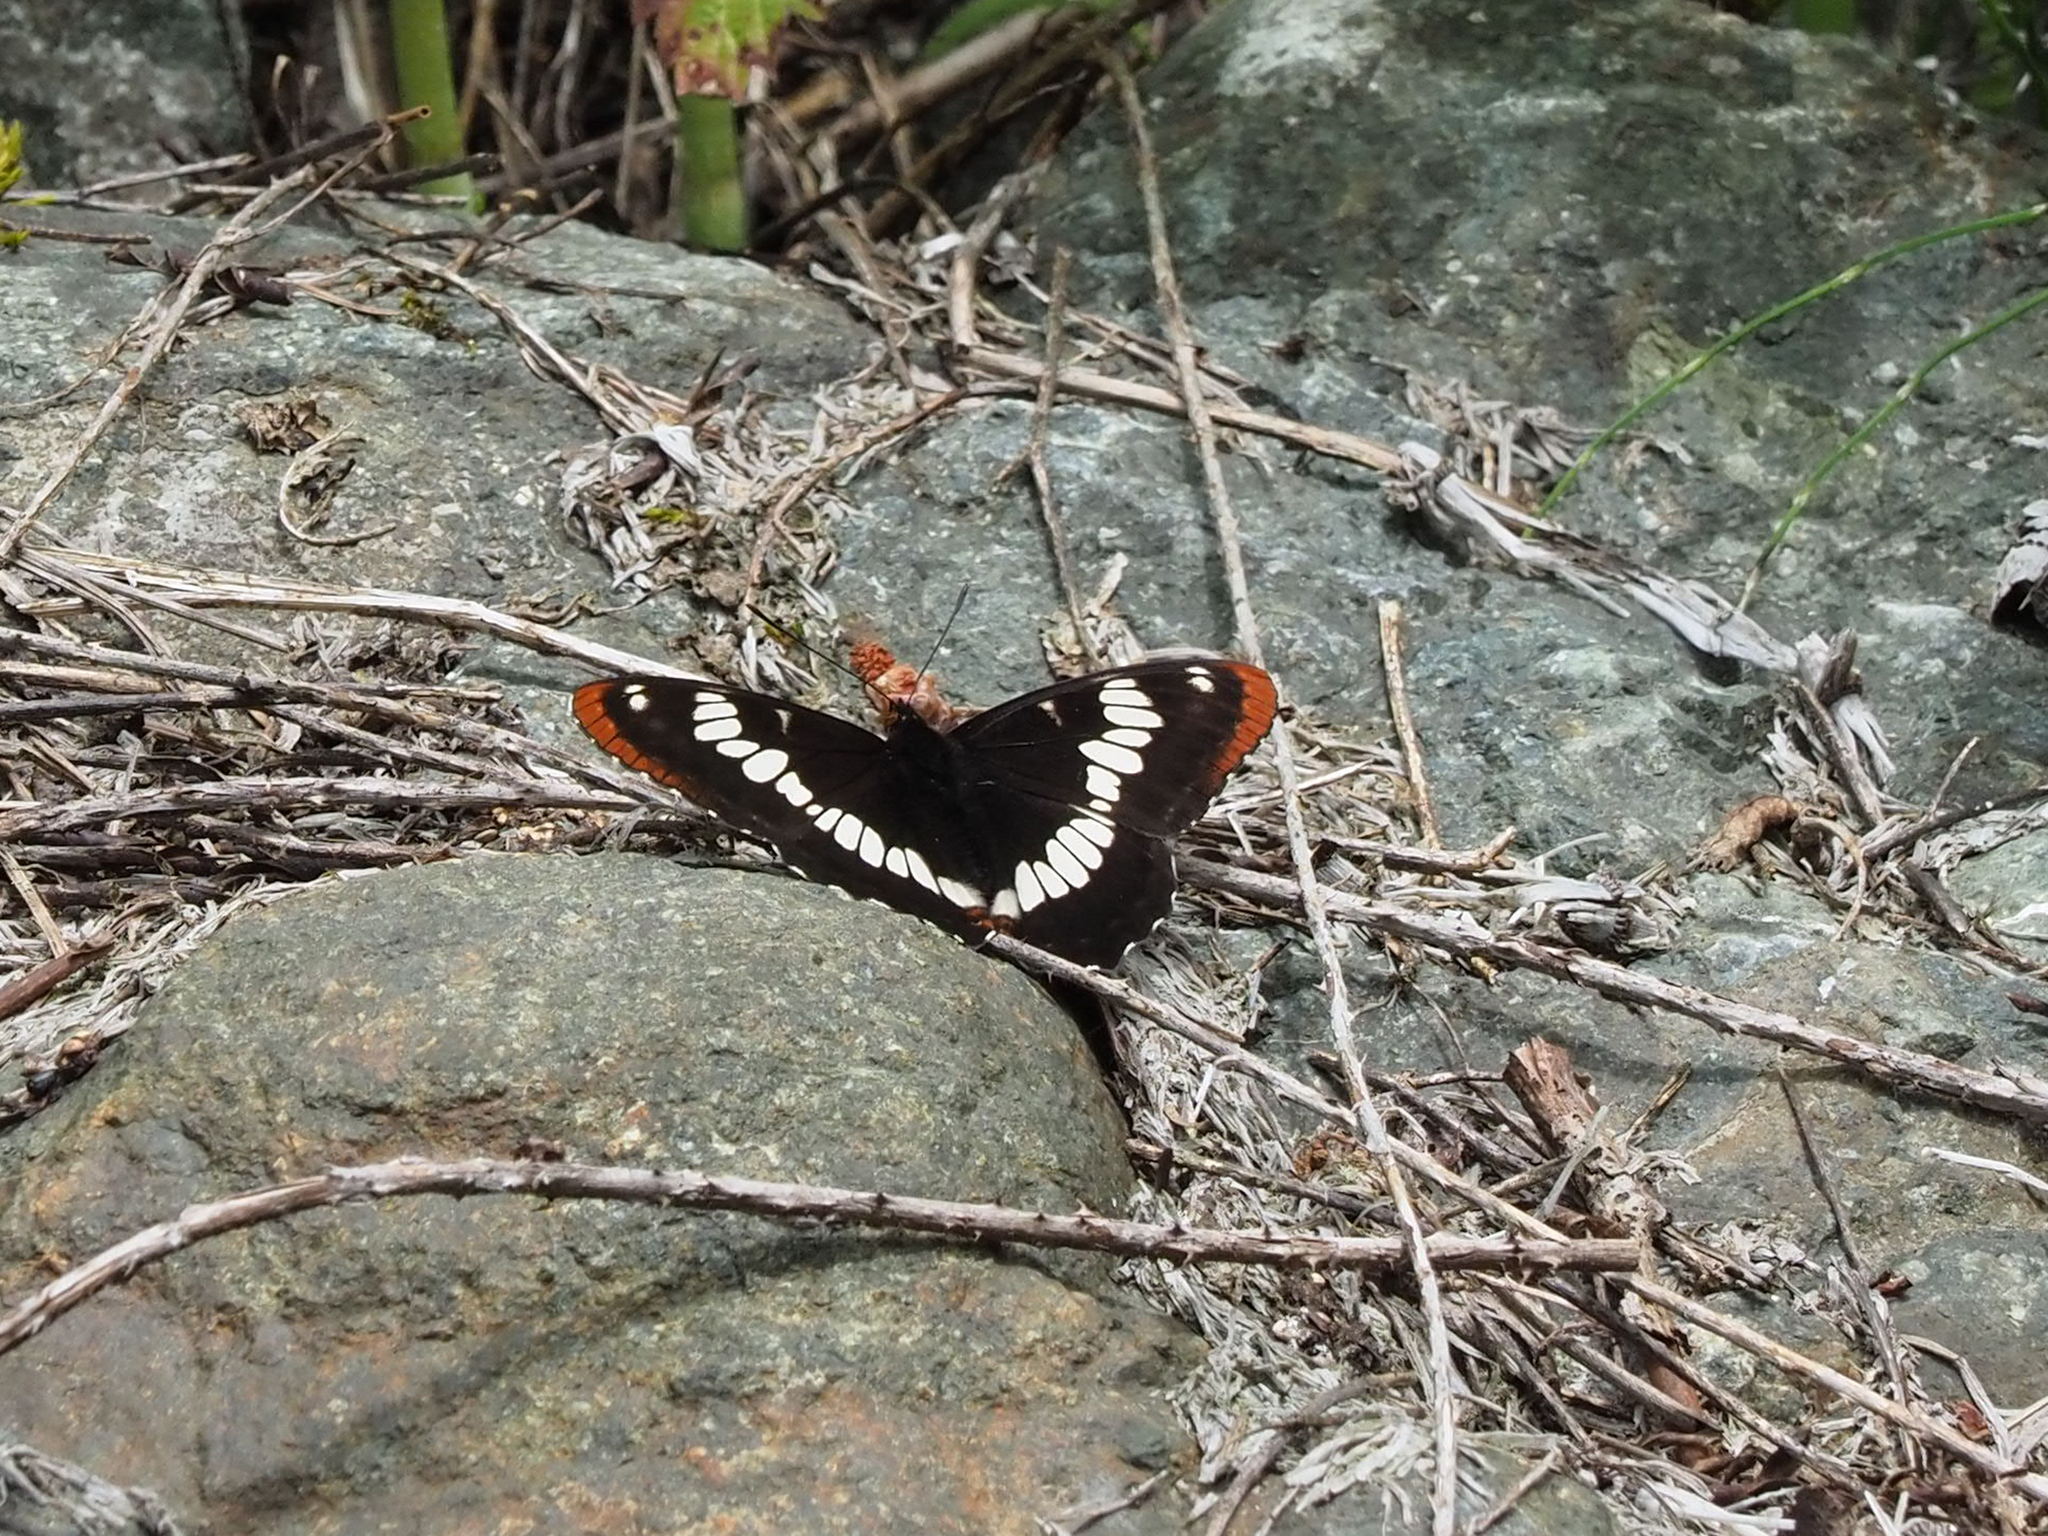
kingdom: Animalia
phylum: Arthropoda
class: Insecta
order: Lepidoptera
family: Nymphalidae
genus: Limenitis
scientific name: Limenitis lorquini
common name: Lorquin's admiral
